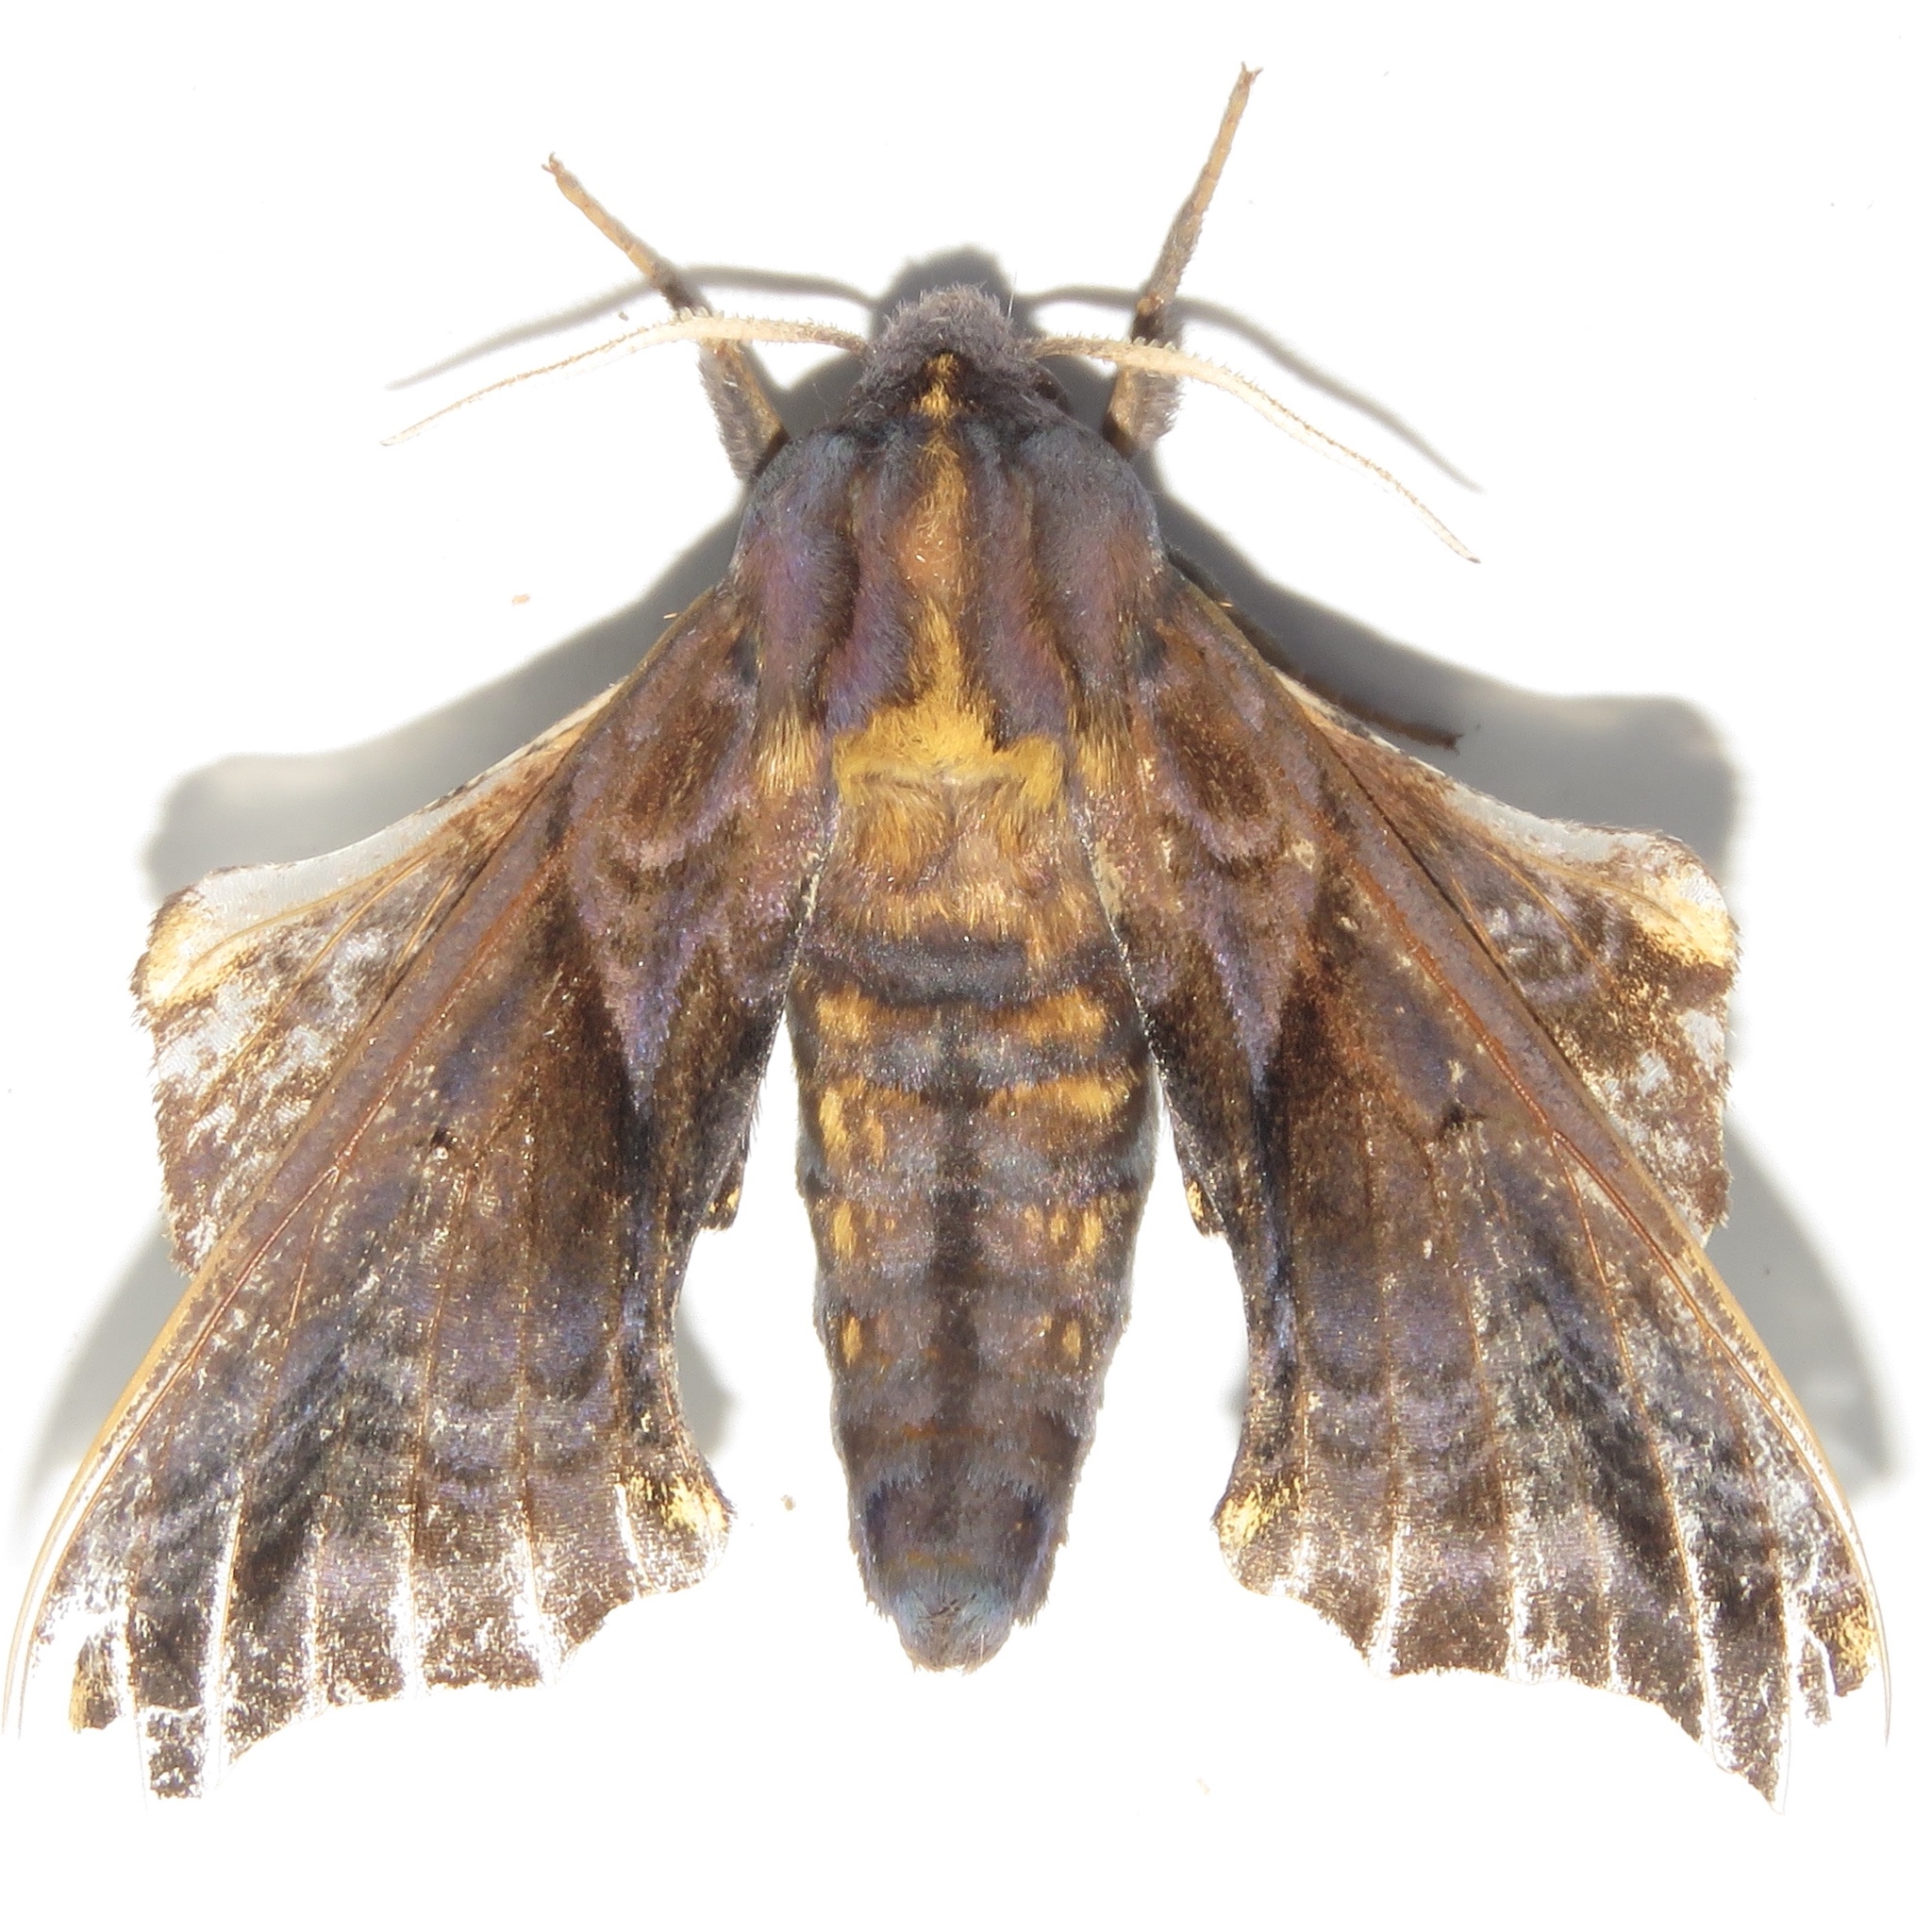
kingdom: Animalia
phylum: Arthropoda
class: Insecta
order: Lepidoptera
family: Sphingidae
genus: Paonias
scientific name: Paonias myops
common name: Small-eyed sphinx
